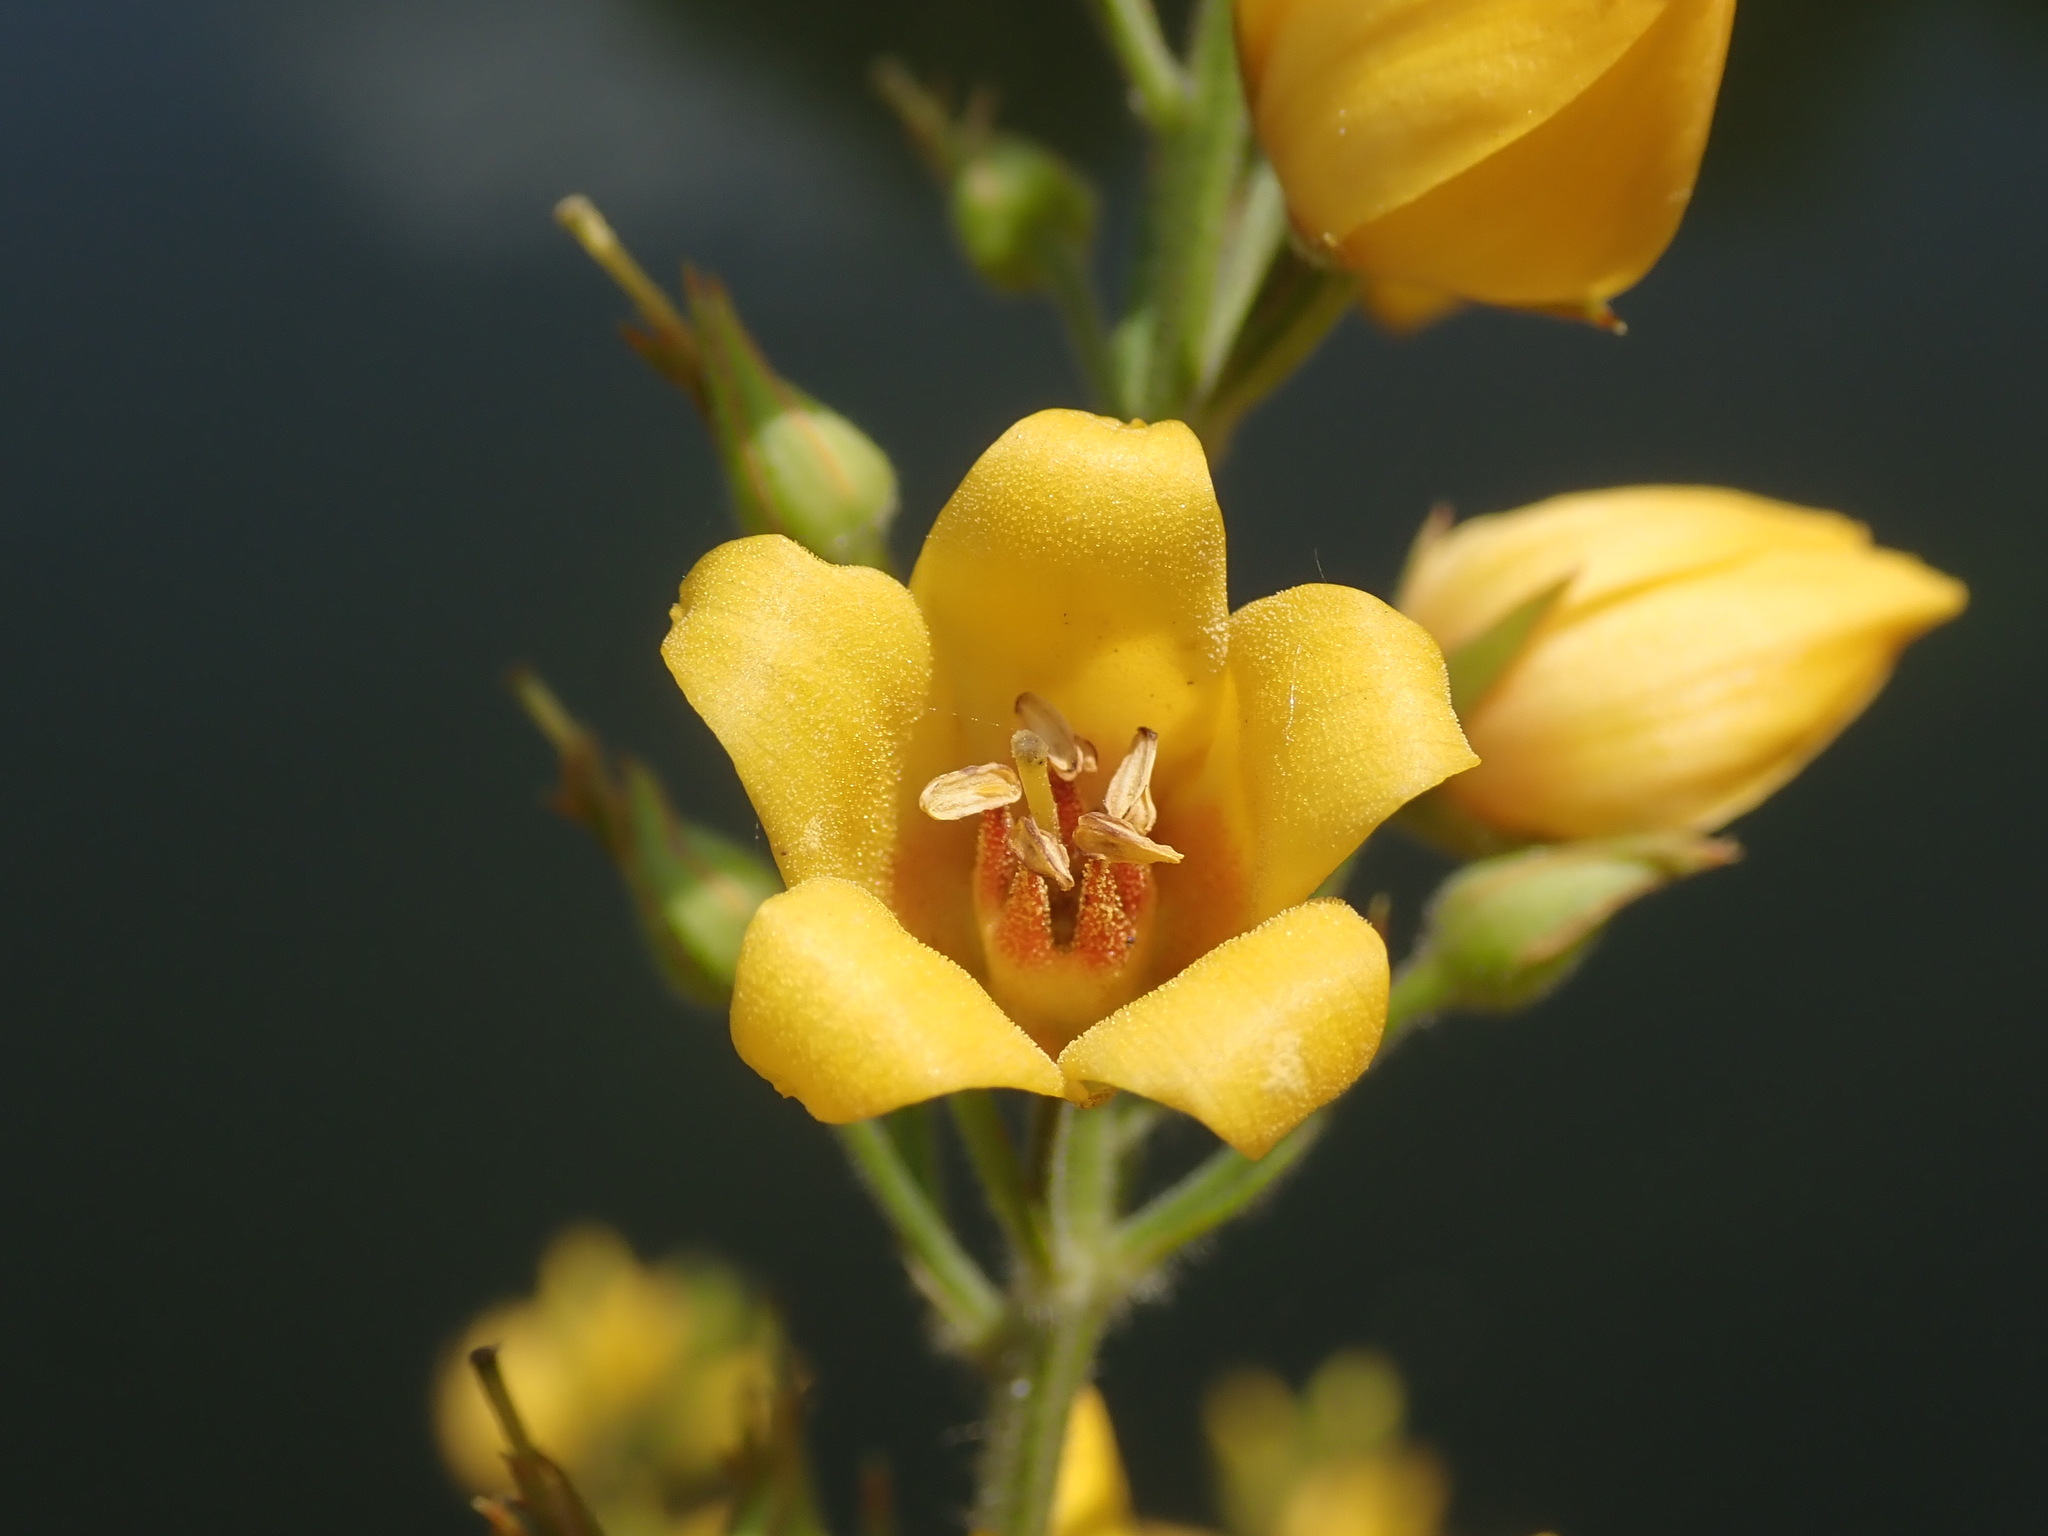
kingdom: Plantae
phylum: Tracheophyta
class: Magnoliopsida
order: Ericales
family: Primulaceae
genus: Lysimachia
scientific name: Lysimachia vulgaris
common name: Yellow loosestrife
